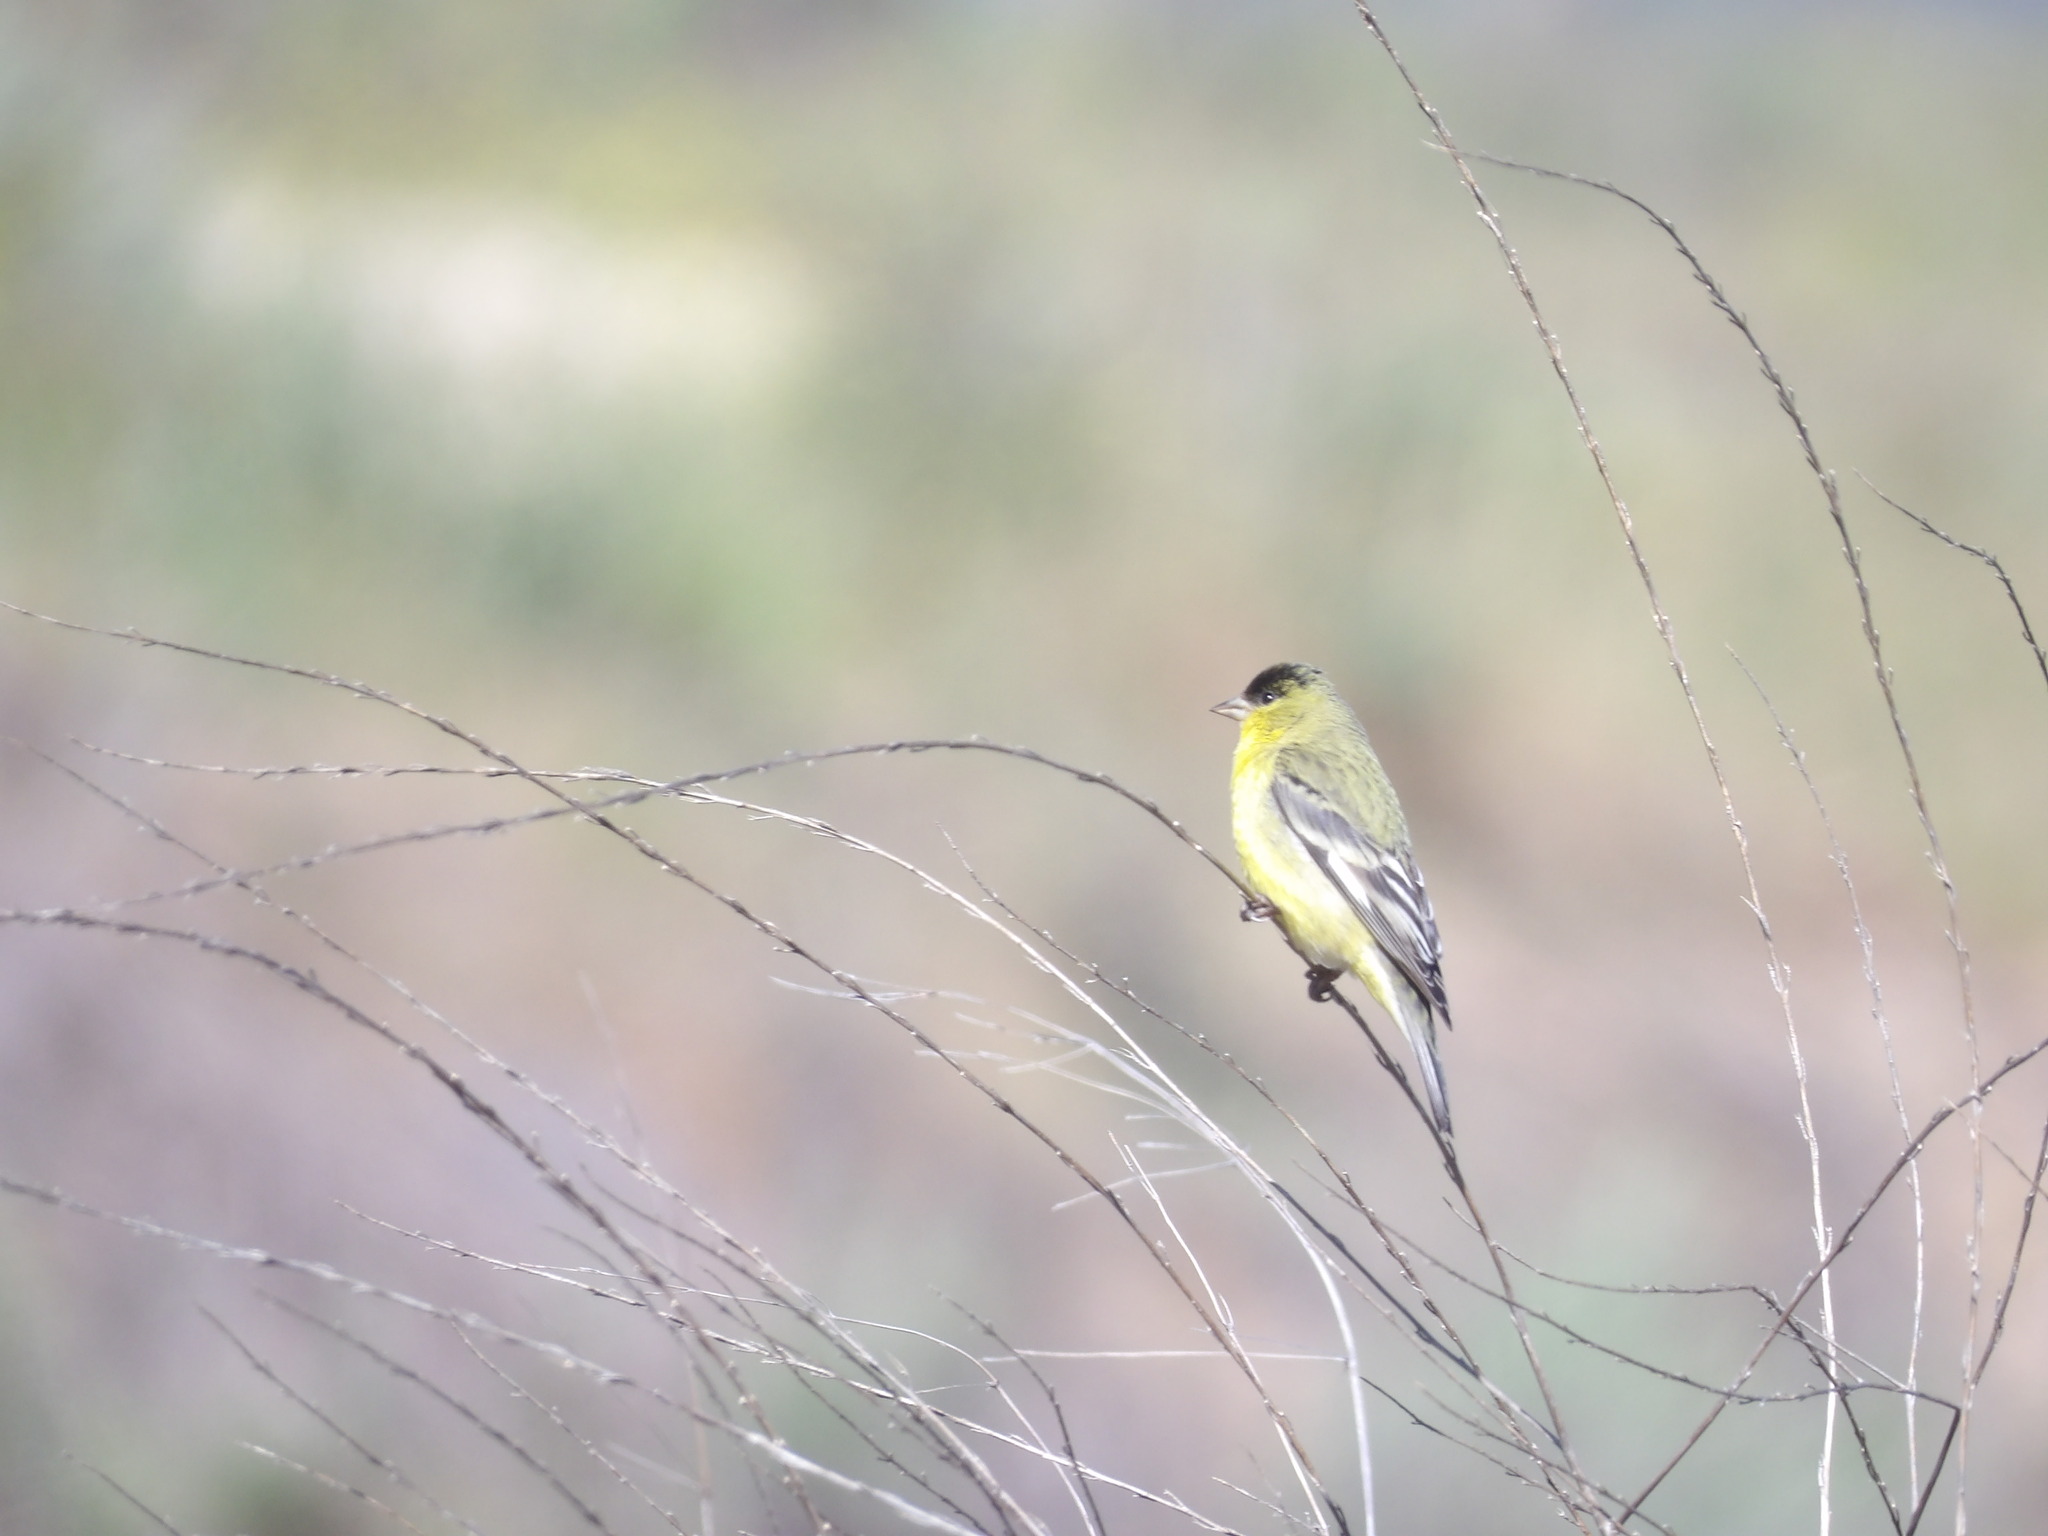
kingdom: Animalia
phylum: Chordata
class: Aves
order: Passeriformes
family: Fringillidae
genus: Spinus
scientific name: Spinus psaltria
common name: Lesser goldfinch
